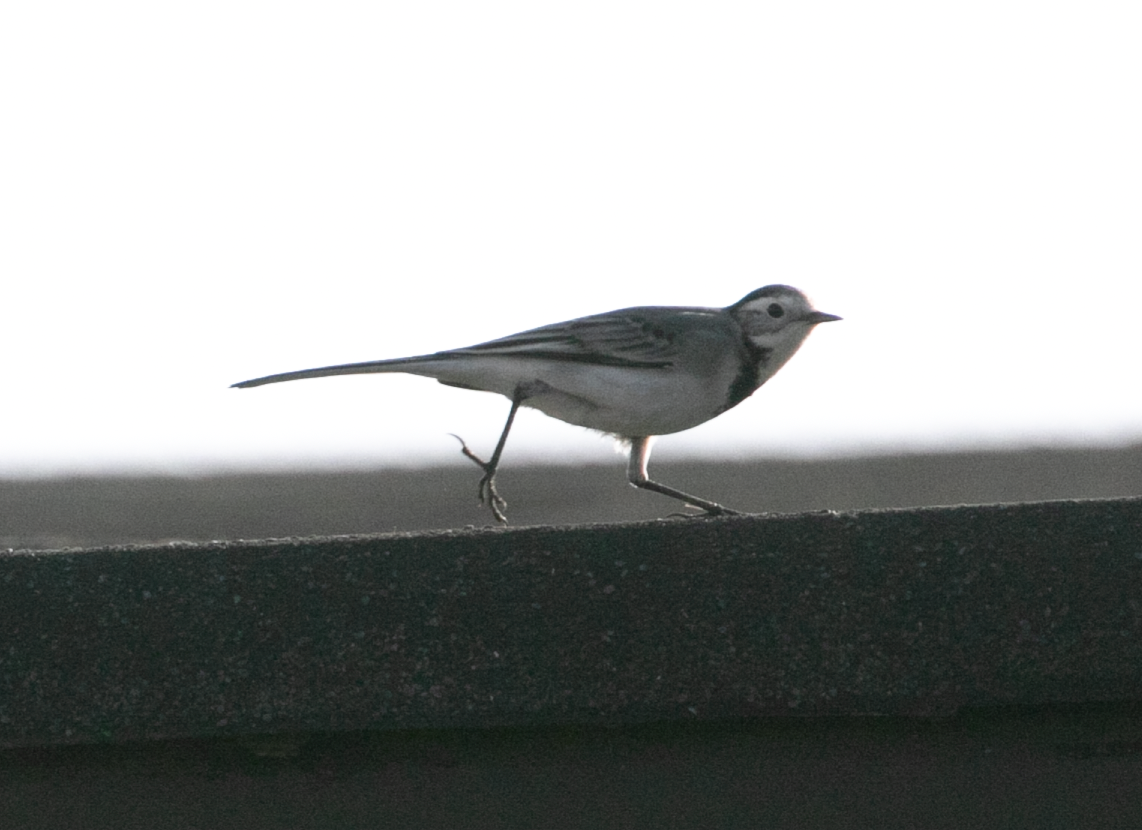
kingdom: Animalia
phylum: Chordata
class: Aves
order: Passeriformes
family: Motacillidae
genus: Motacilla
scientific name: Motacilla alba
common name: White wagtail
